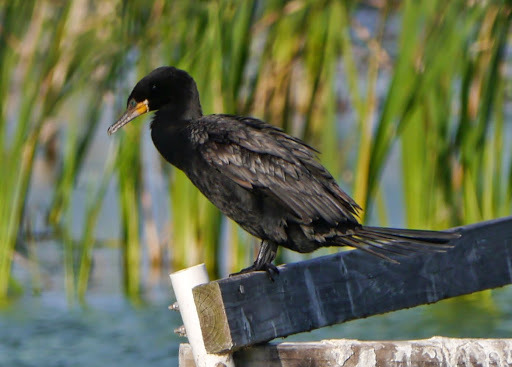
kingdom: Animalia
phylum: Chordata
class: Aves
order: Suliformes
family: Phalacrocoracidae
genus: Phalacrocorax
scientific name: Phalacrocorax brasilianus
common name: Neotropic cormorant
